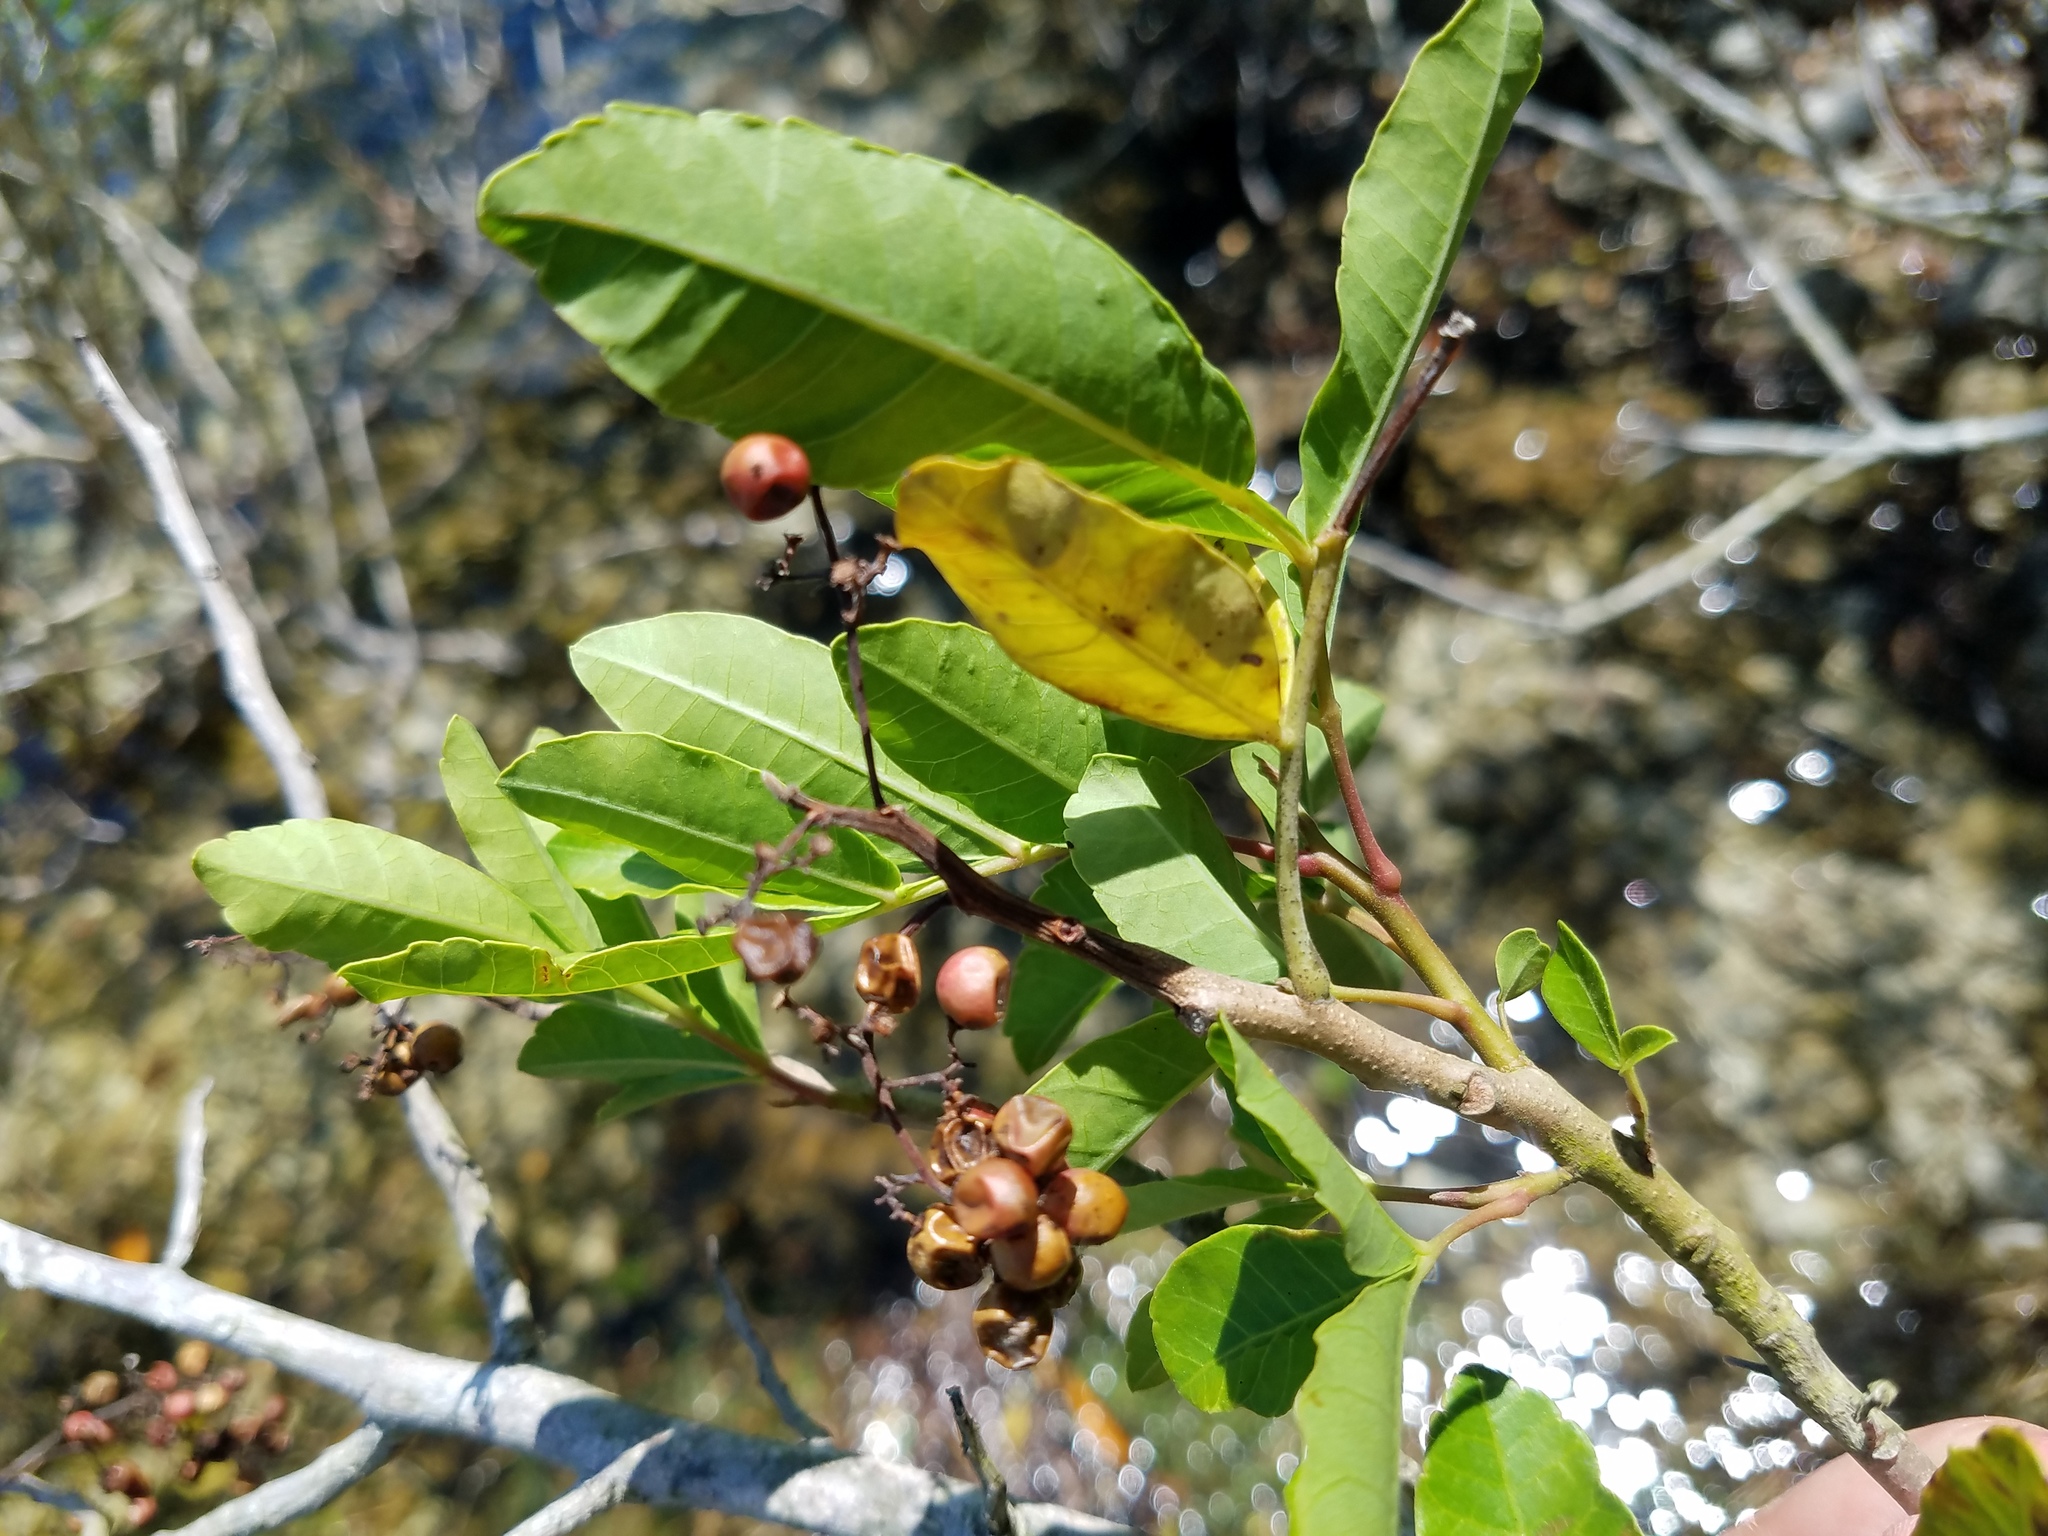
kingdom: Plantae
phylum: Tracheophyta
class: Magnoliopsida
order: Sapindales
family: Anacardiaceae
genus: Schinus
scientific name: Schinus terebinthifolia
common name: Brazilian peppertree
